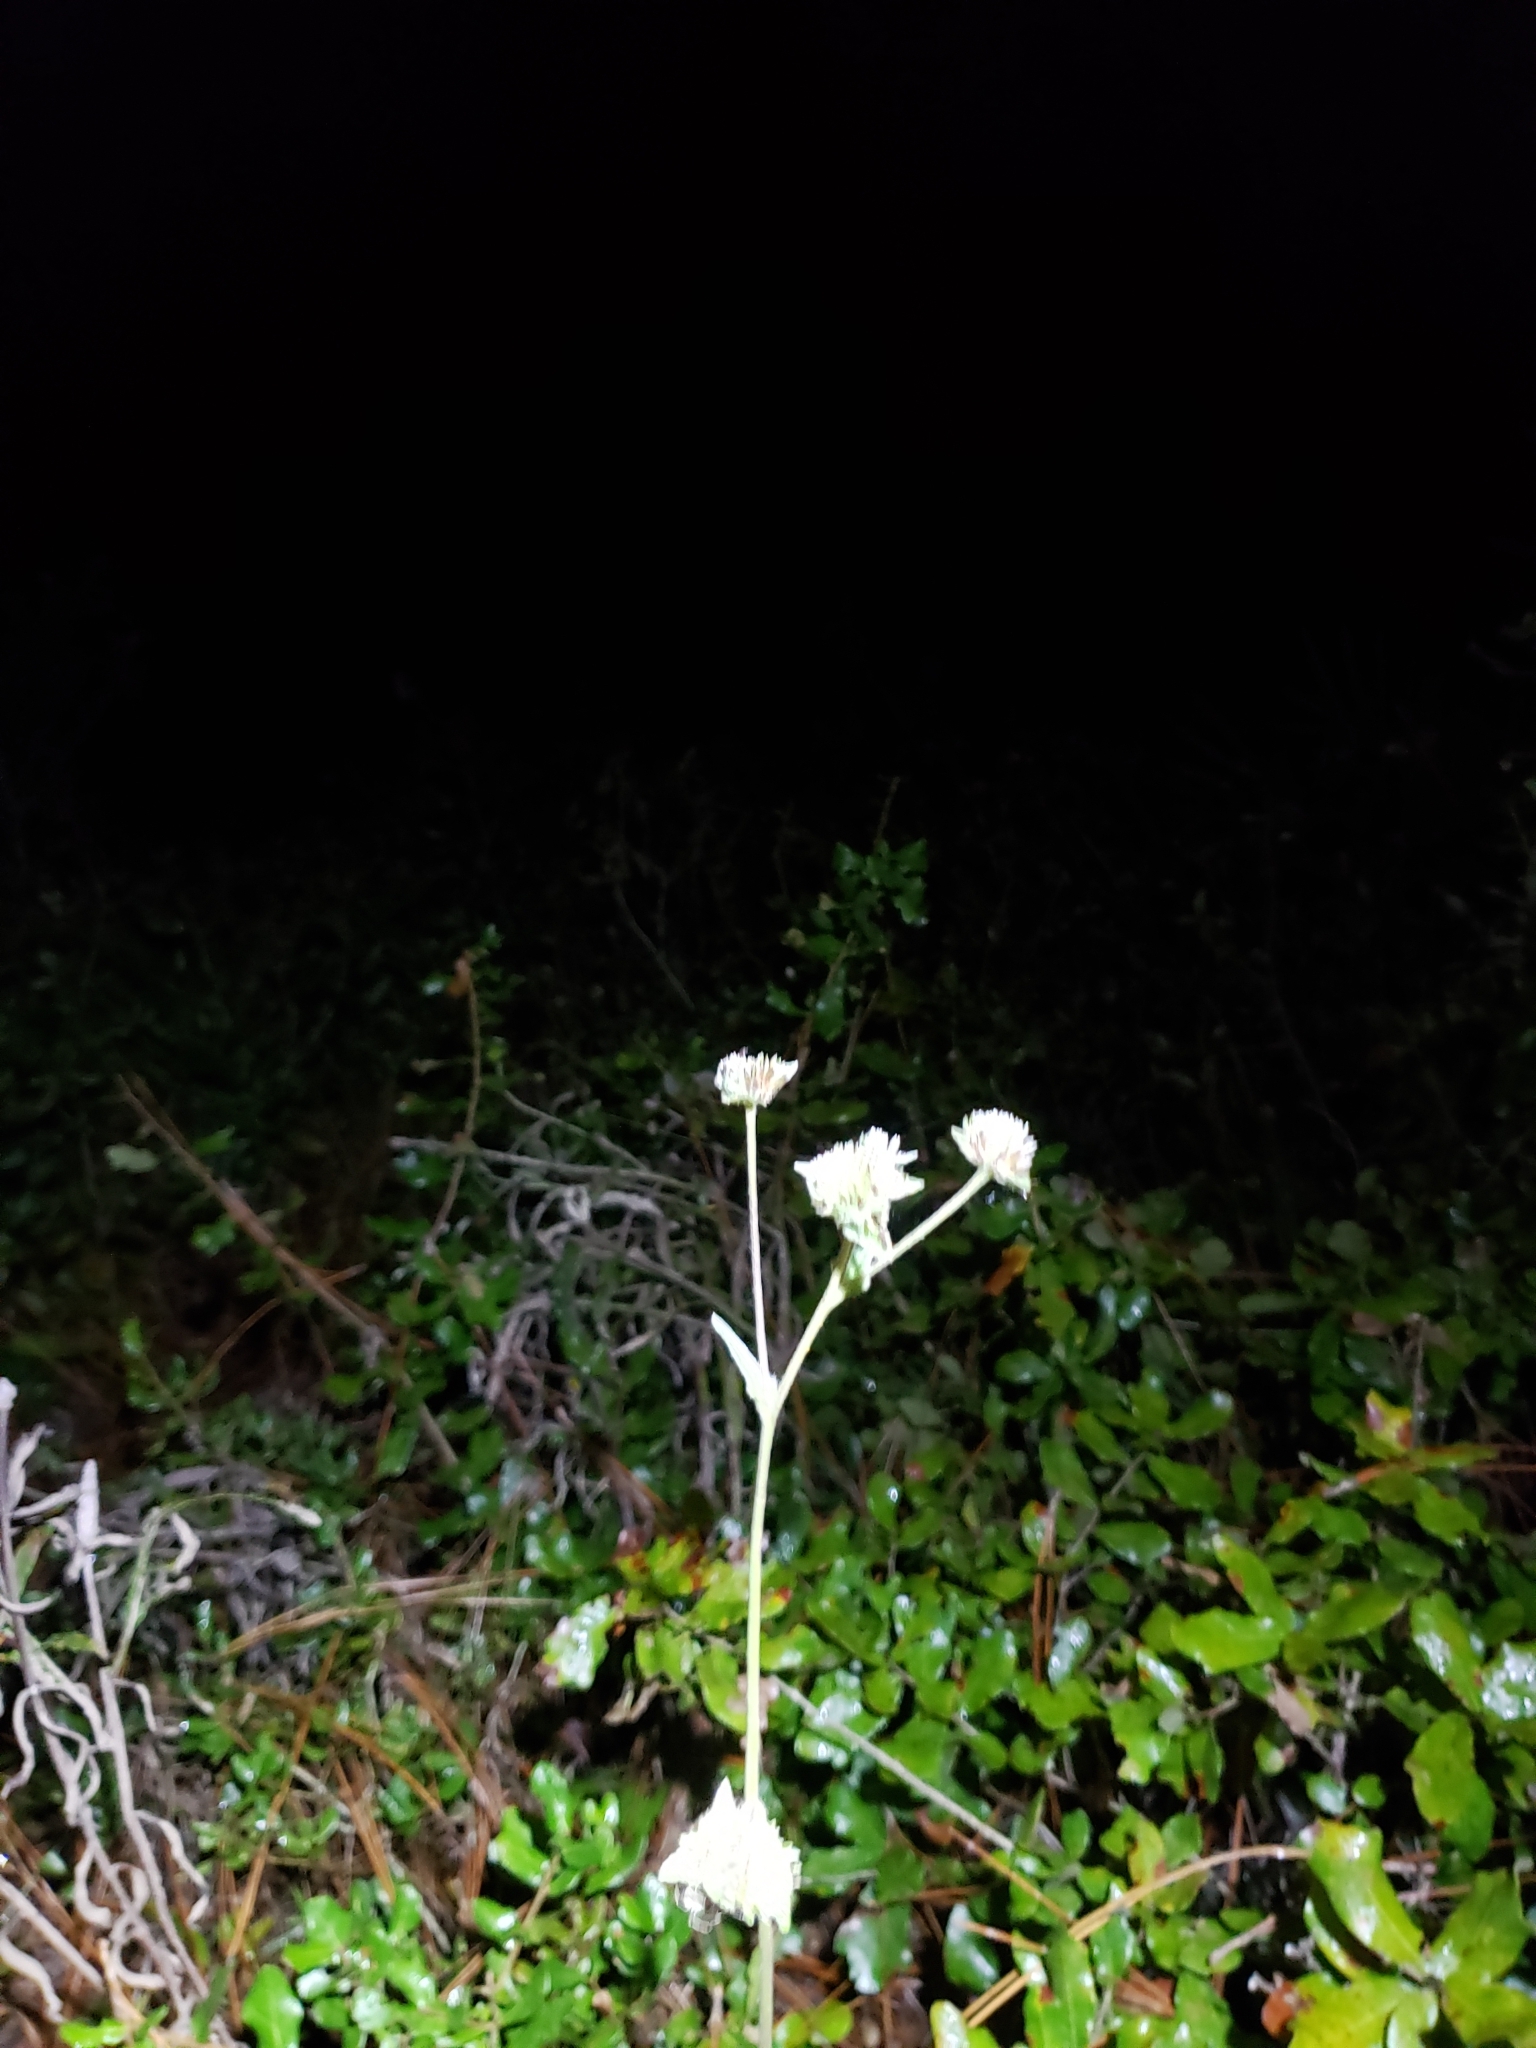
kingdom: Plantae
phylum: Tracheophyta
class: Magnoliopsida
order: Asterales
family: Asteraceae
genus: Elephantopus
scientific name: Elephantopus elatus
